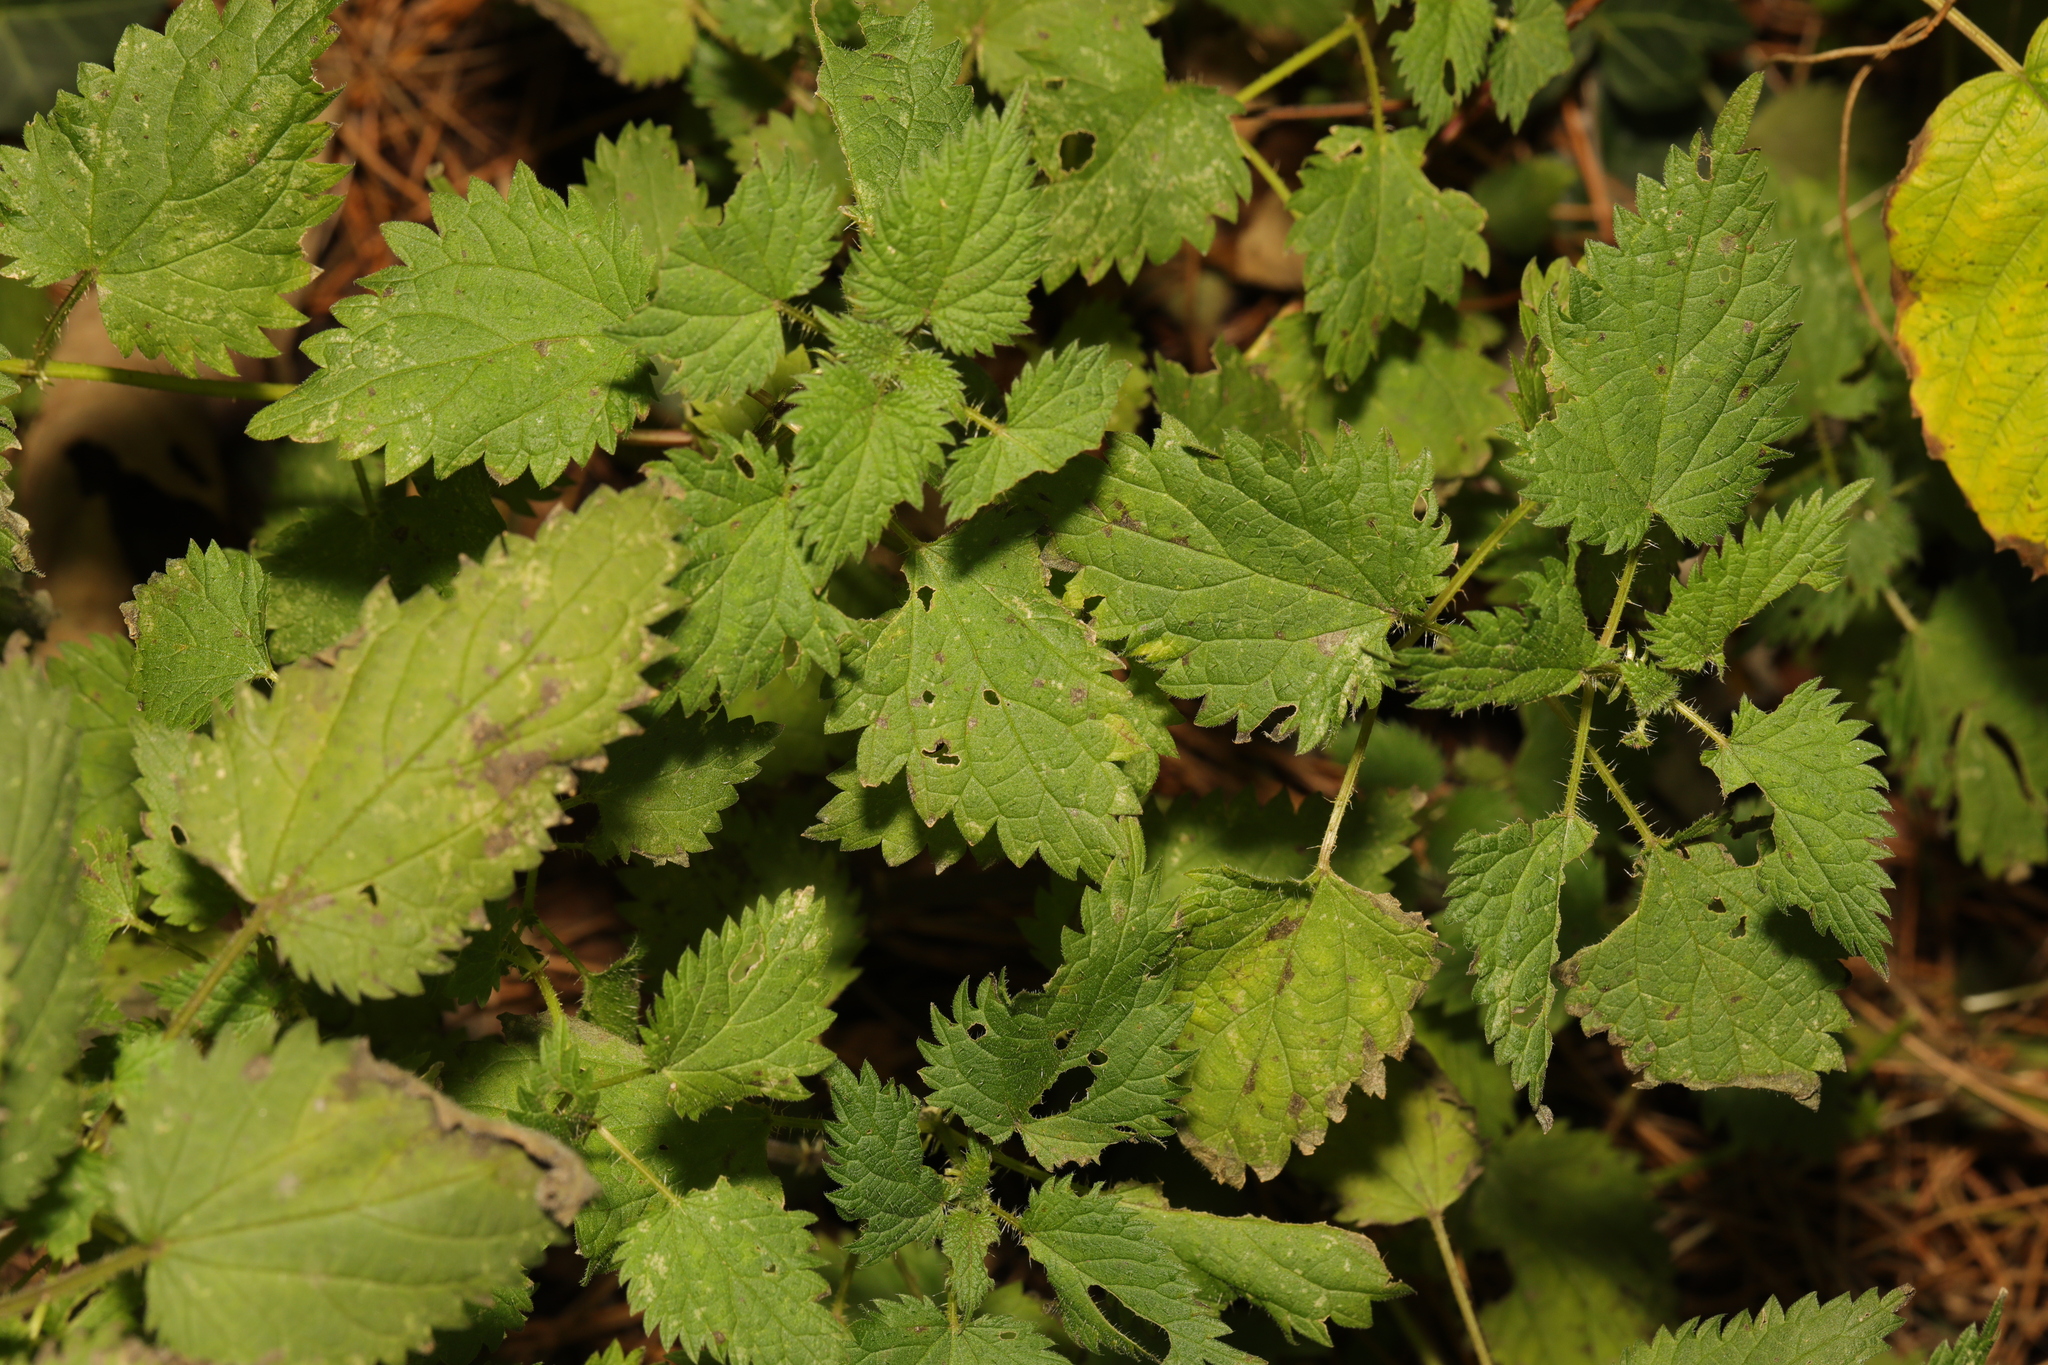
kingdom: Plantae
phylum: Tracheophyta
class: Magnoliopsida
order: Rosales
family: Urticaceae
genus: Urtica
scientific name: Urtica dioica
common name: Common nettle
